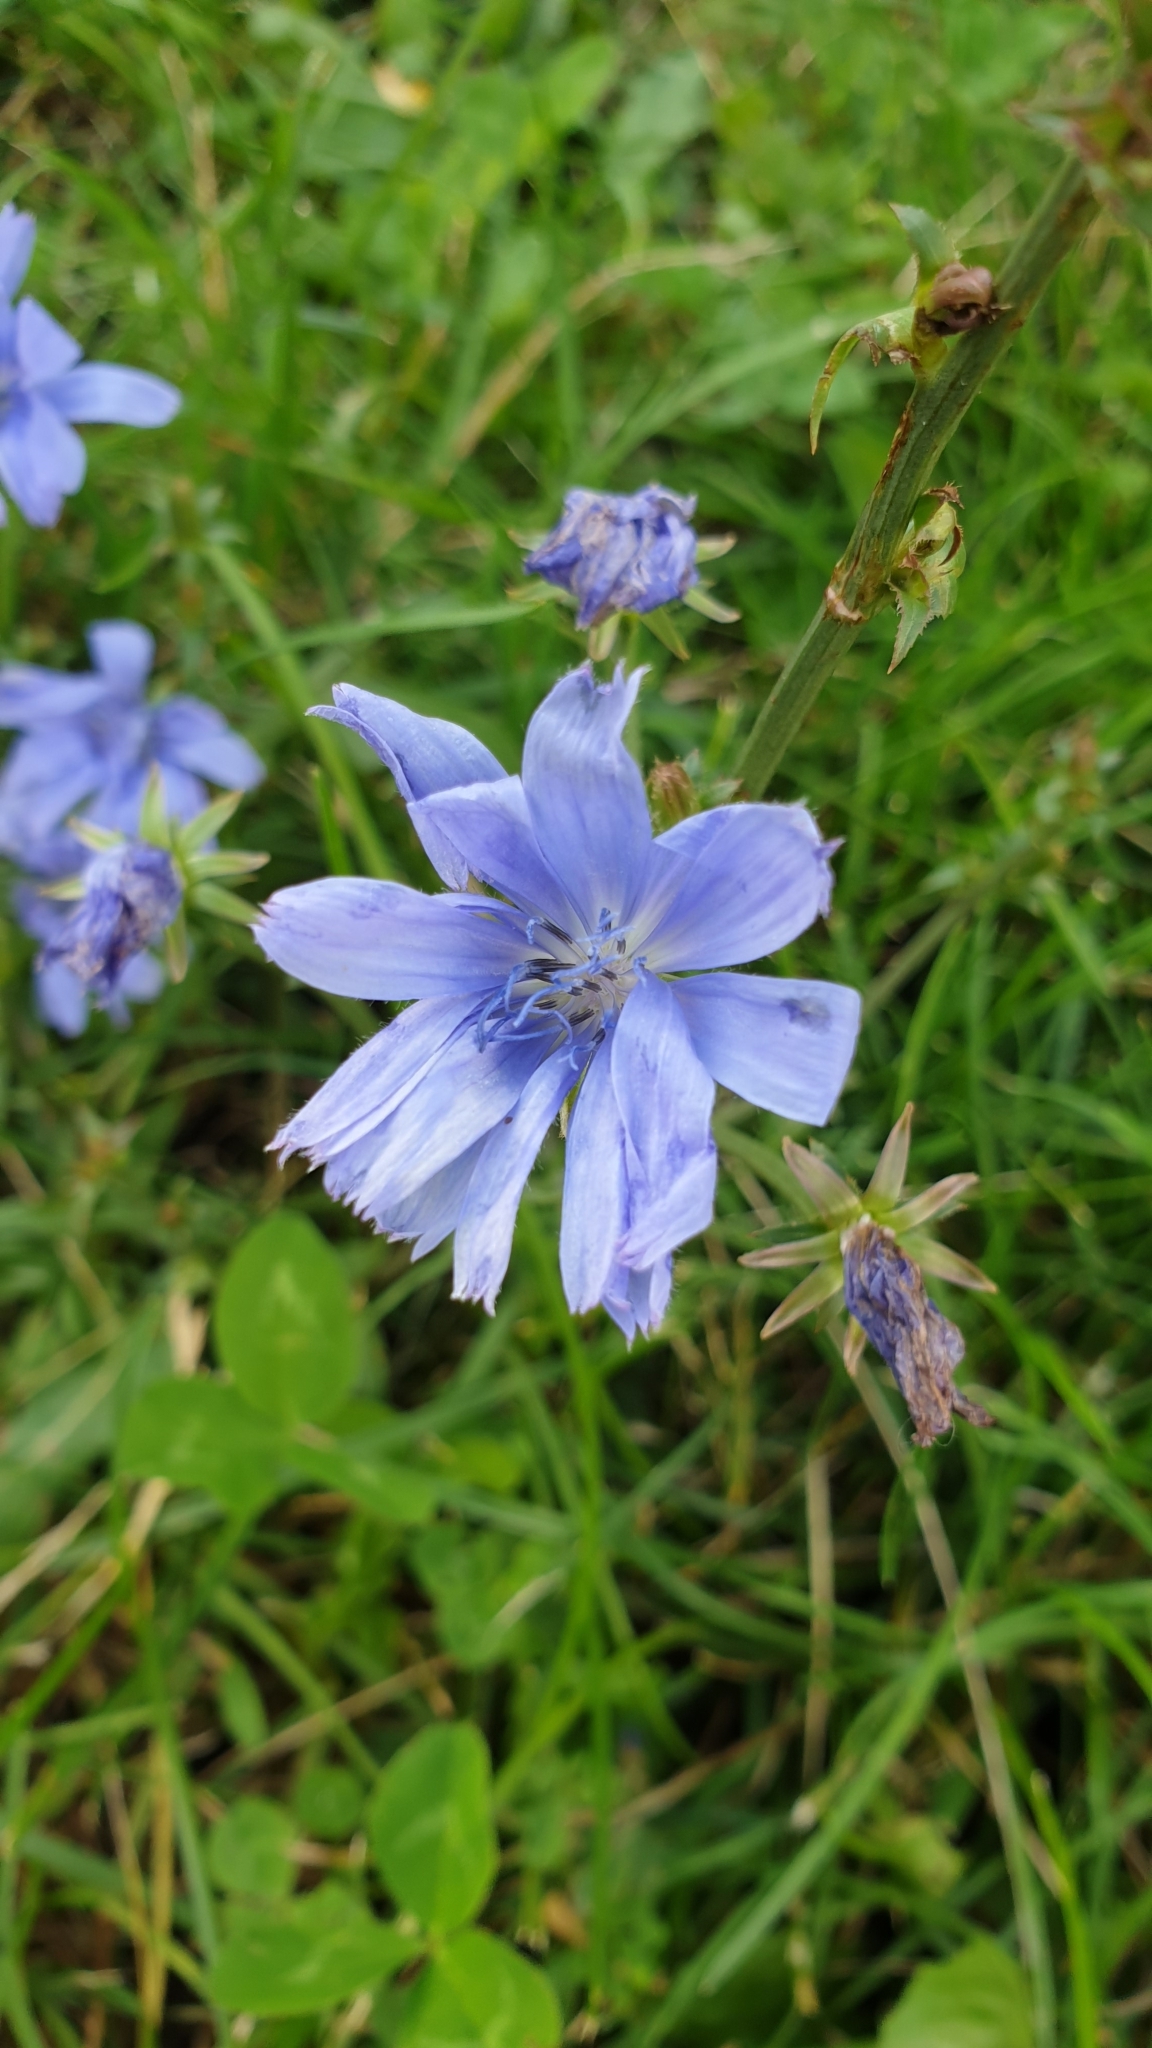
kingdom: Plantae
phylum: Tracheophyta
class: Magnoliopsida
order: Asterales
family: Asteraceae
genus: Cichorium
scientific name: Cichorium intybus
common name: Chicory
